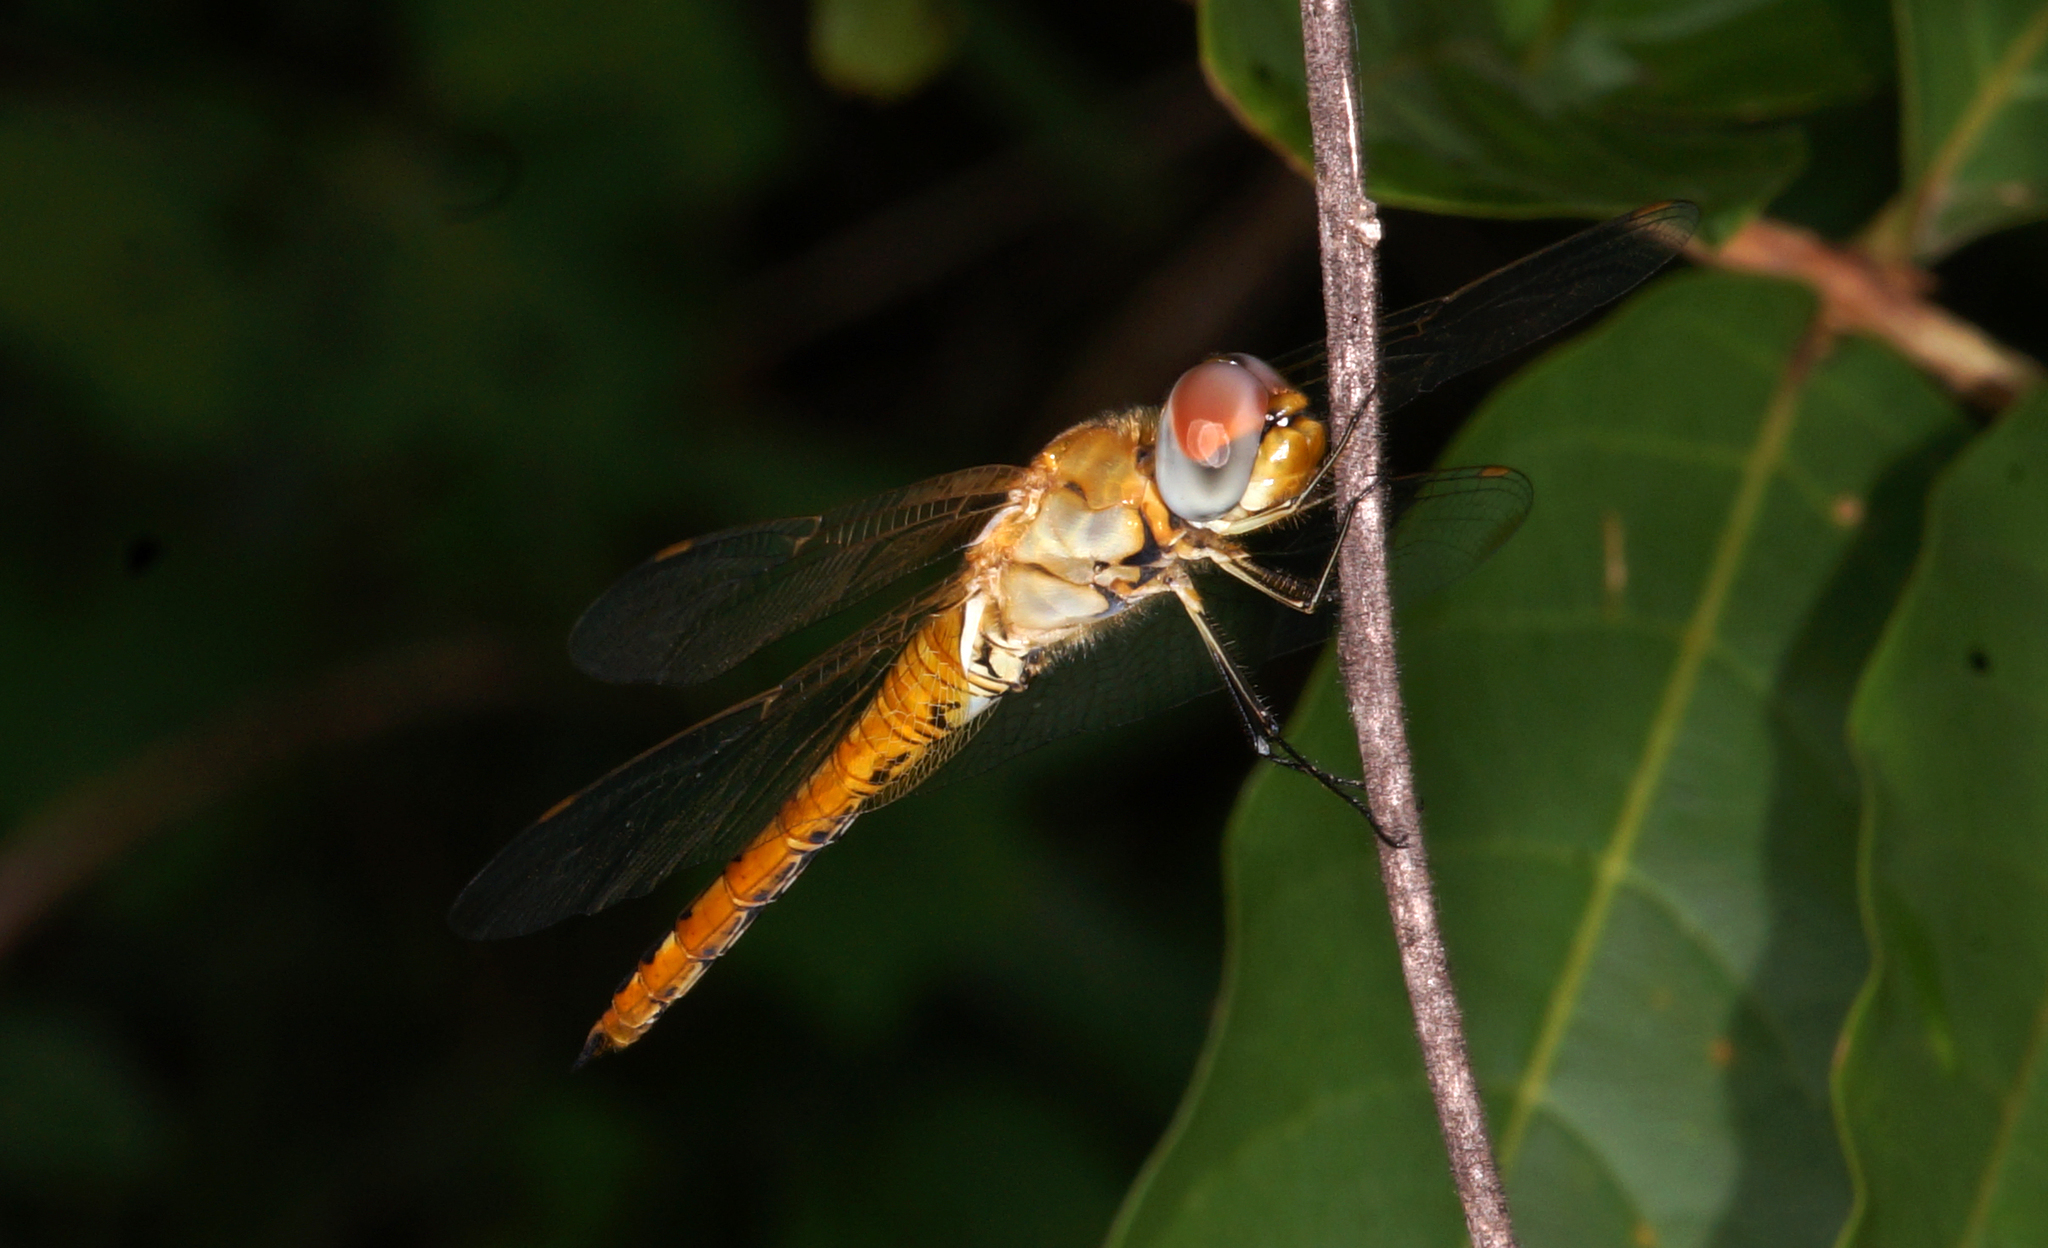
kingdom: Animalia
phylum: Arthropoda
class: Insecta
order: Odonata
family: Libellulidae
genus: Pantala
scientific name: Pantala flavescens
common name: Wandering glider
